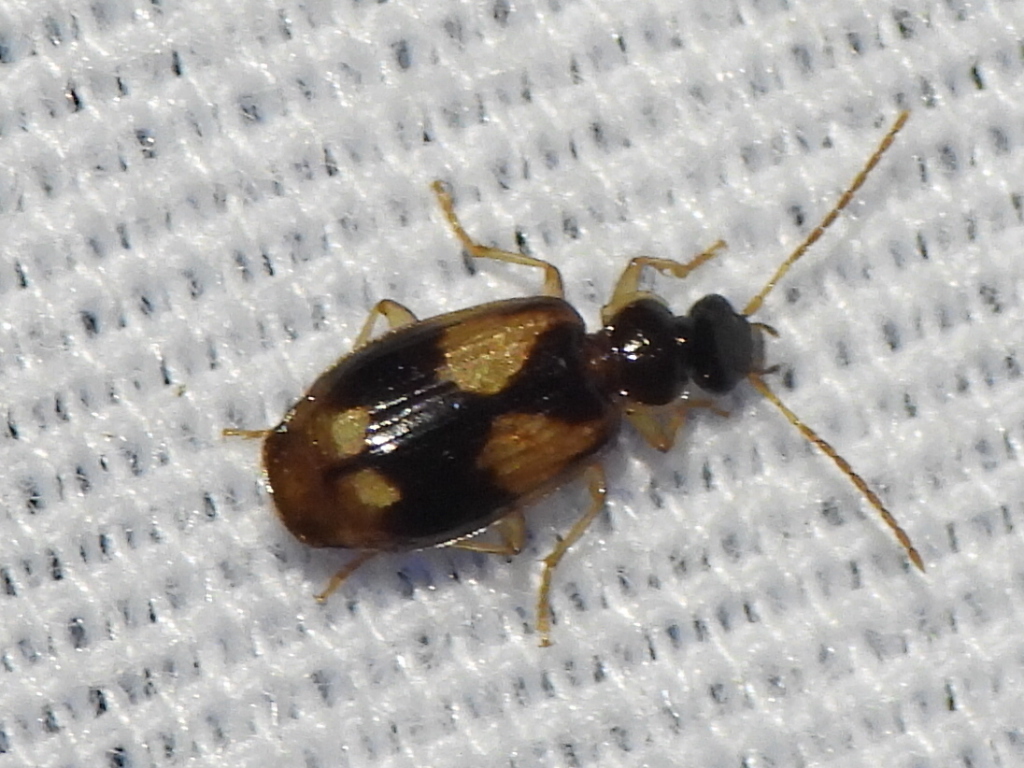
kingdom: Animalia
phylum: Arthropoda
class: Insecta
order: Coleoptera
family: Carabidae
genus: Lebia
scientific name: Lebia ornata
